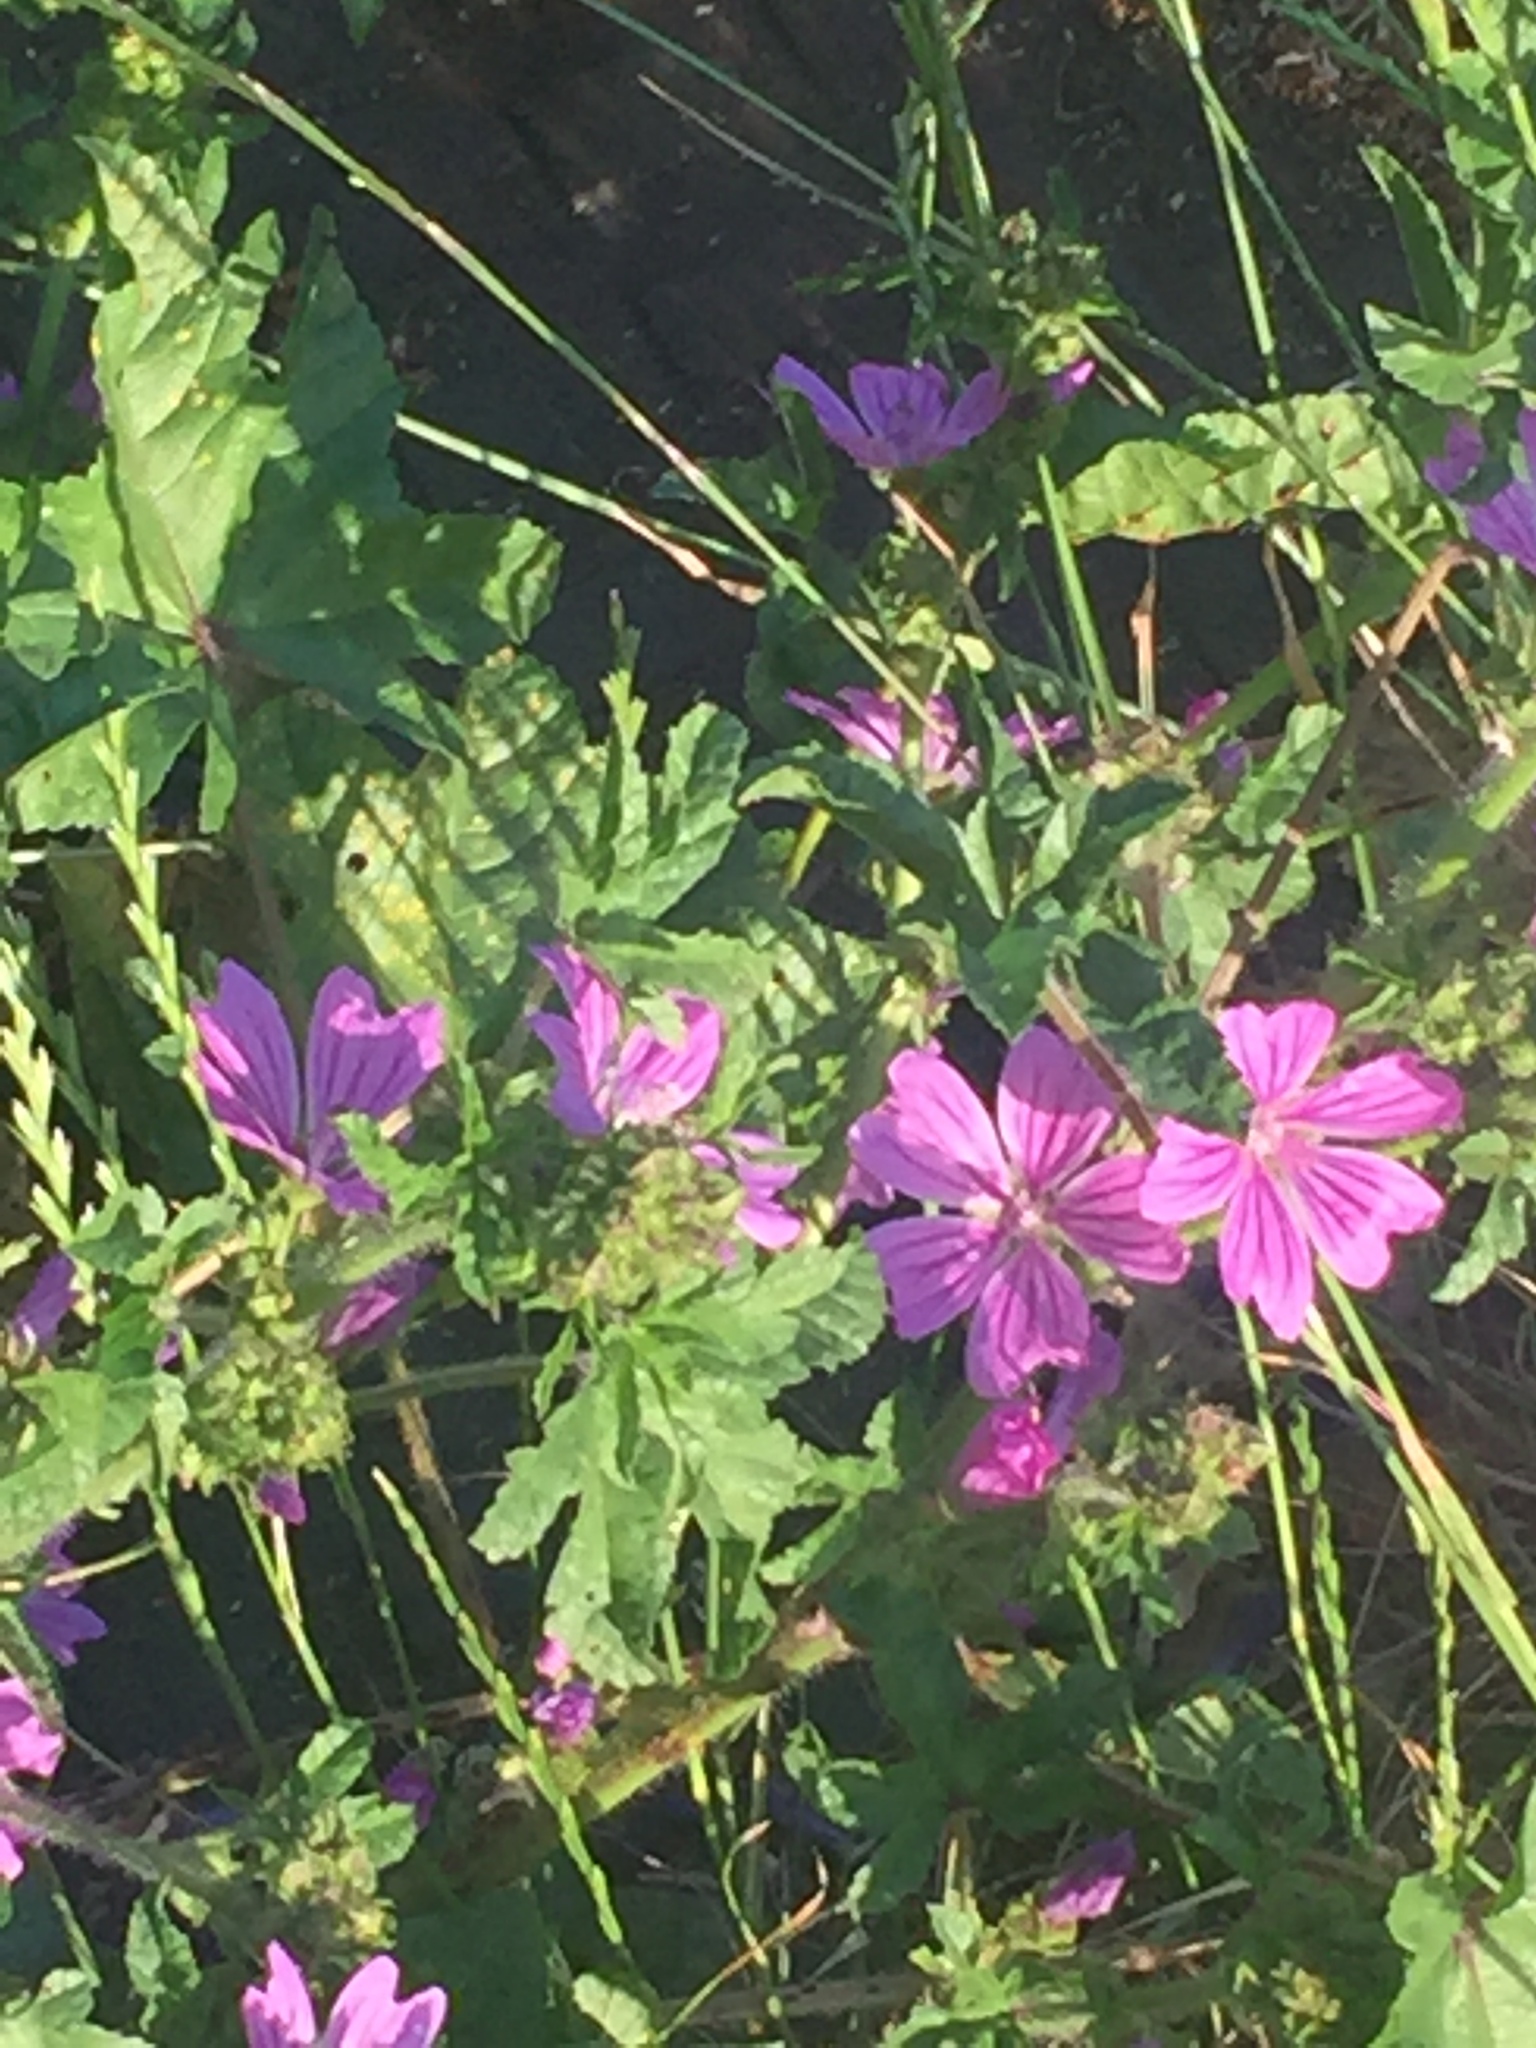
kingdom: Plantae
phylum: Tracheophyta
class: Magnoliopsida
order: Malvales
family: Malvaceae
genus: Malva
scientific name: Malva sylvestris
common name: Common mallow
